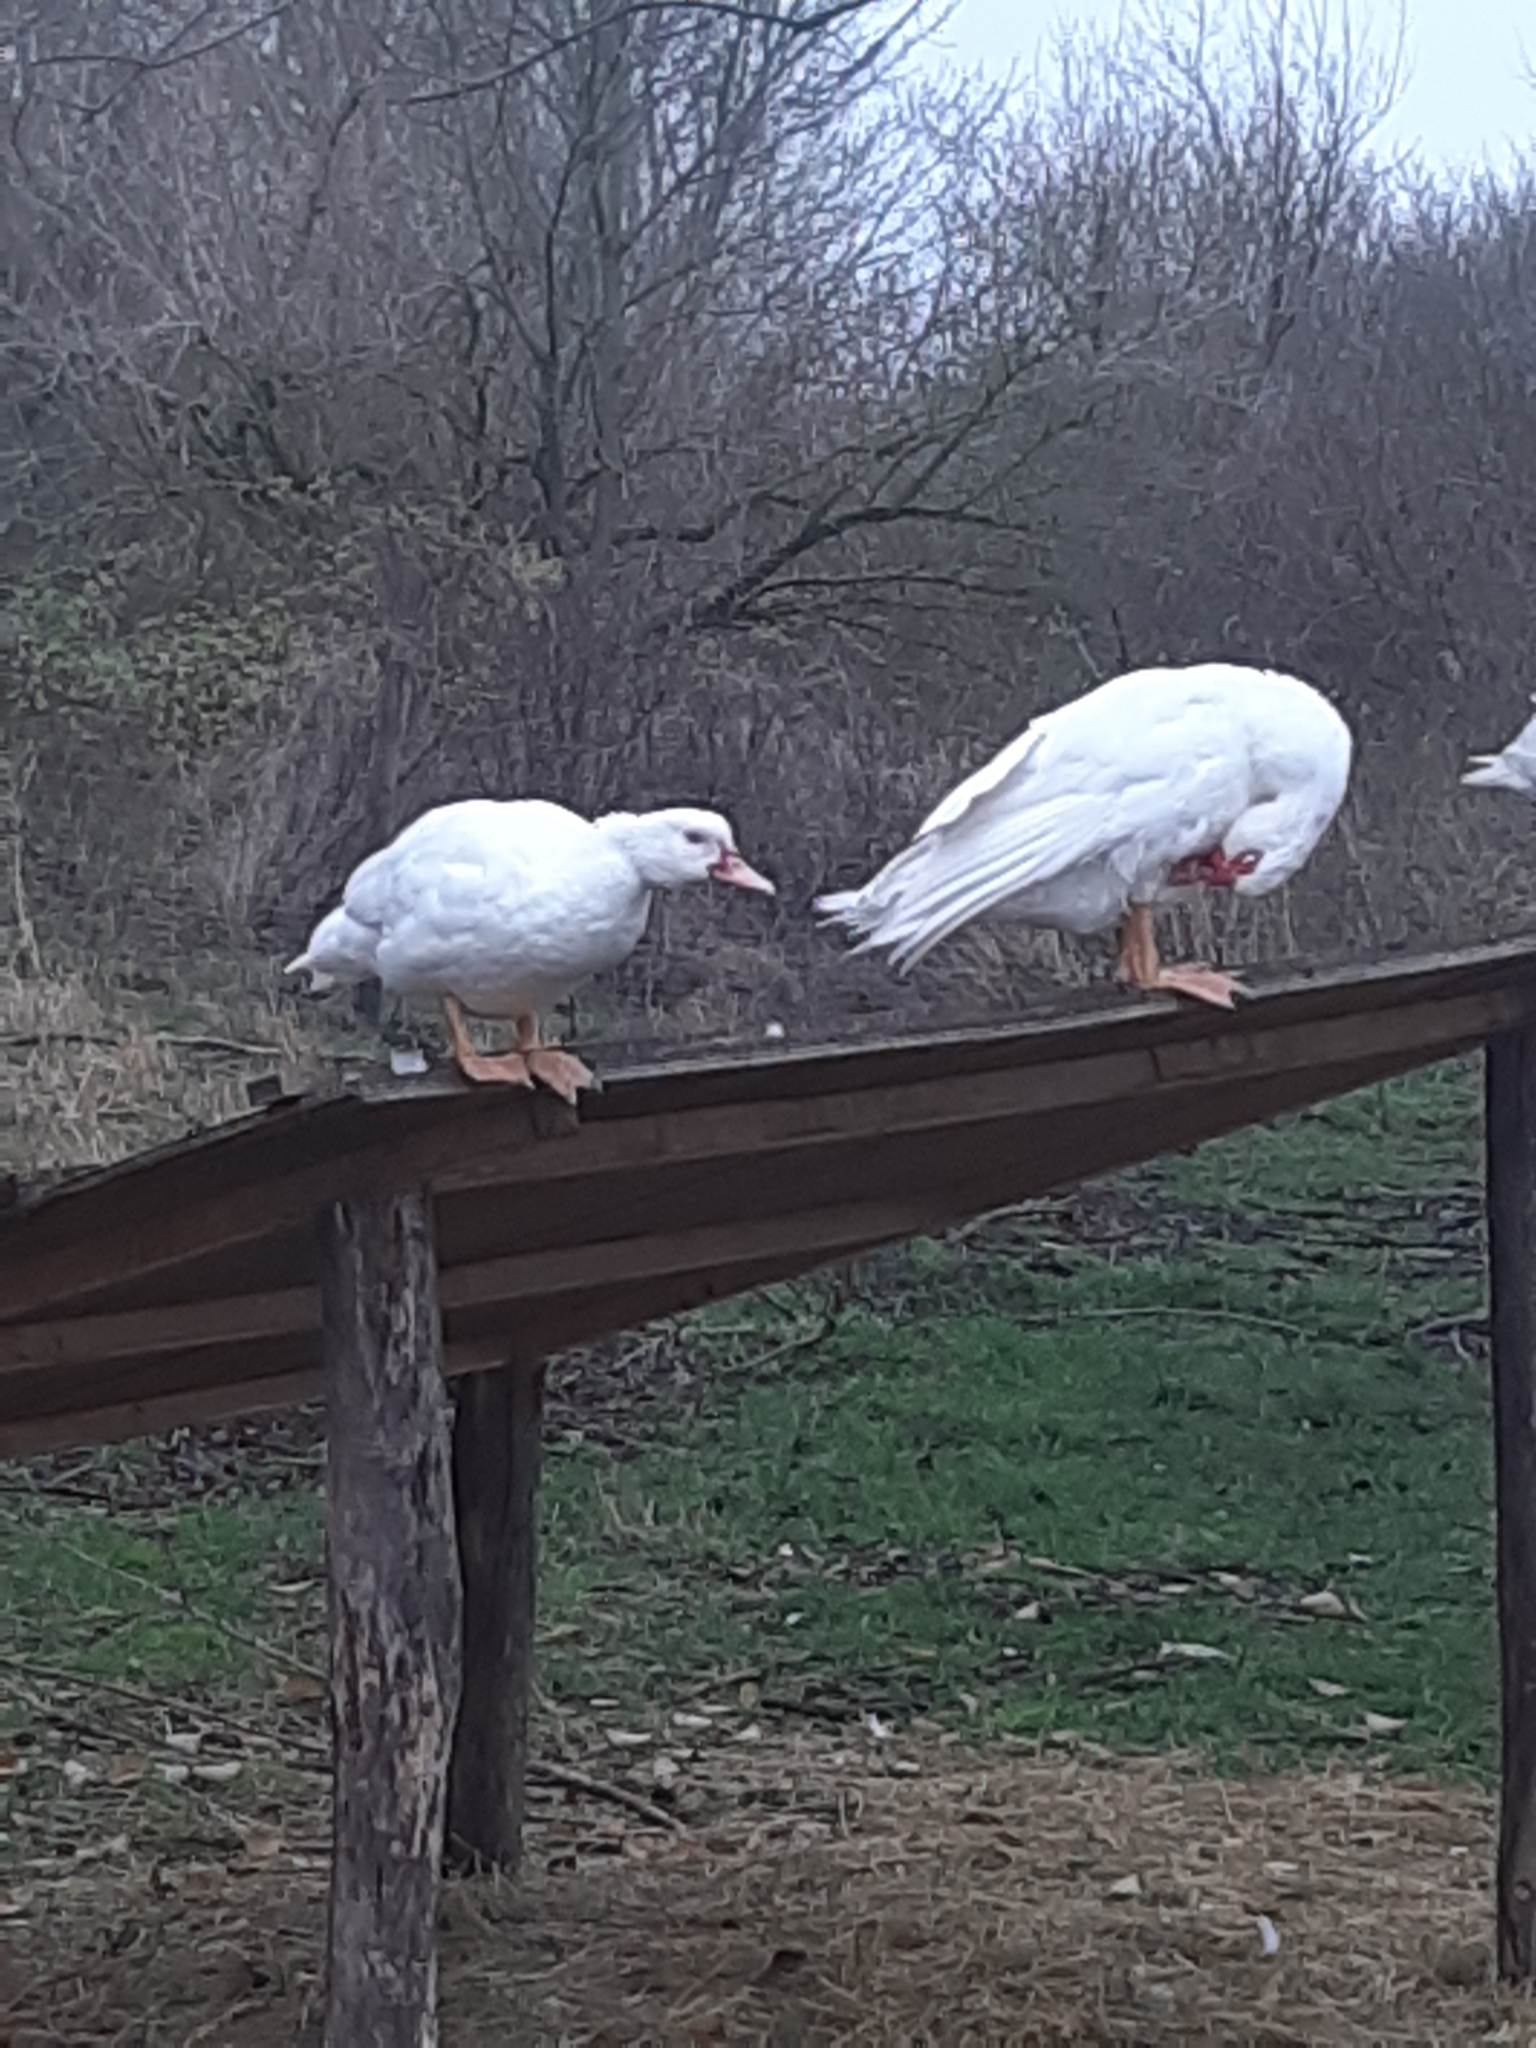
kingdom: Animalia
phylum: Chordata
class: Aves
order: Anseriformes
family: Anatidae
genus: Cairina
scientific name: Cairina moschata
